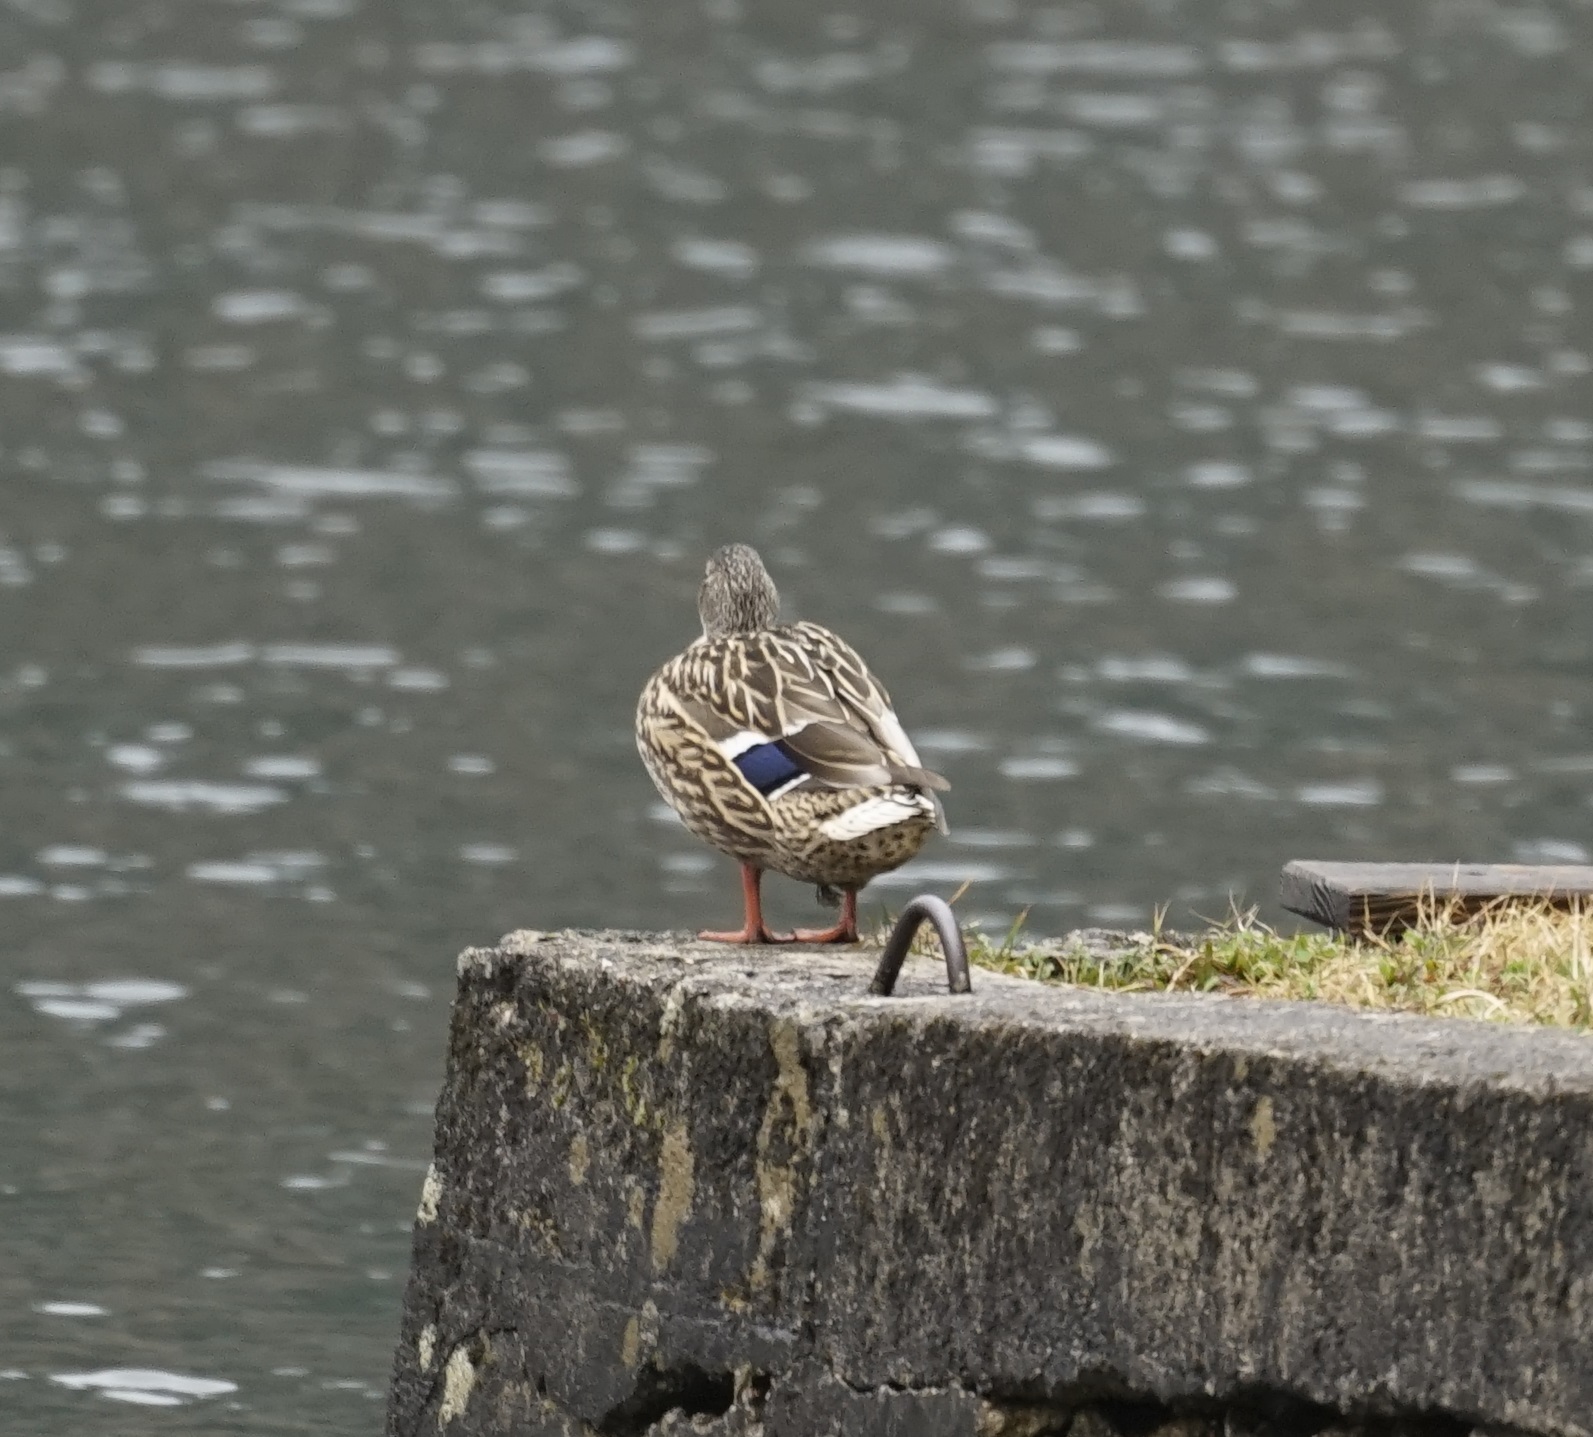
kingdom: Animalia
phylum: Chordata
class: Aves
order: Anseriformes
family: Anatidae
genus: Anas
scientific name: Anas platyrhynchos
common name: Mallard
